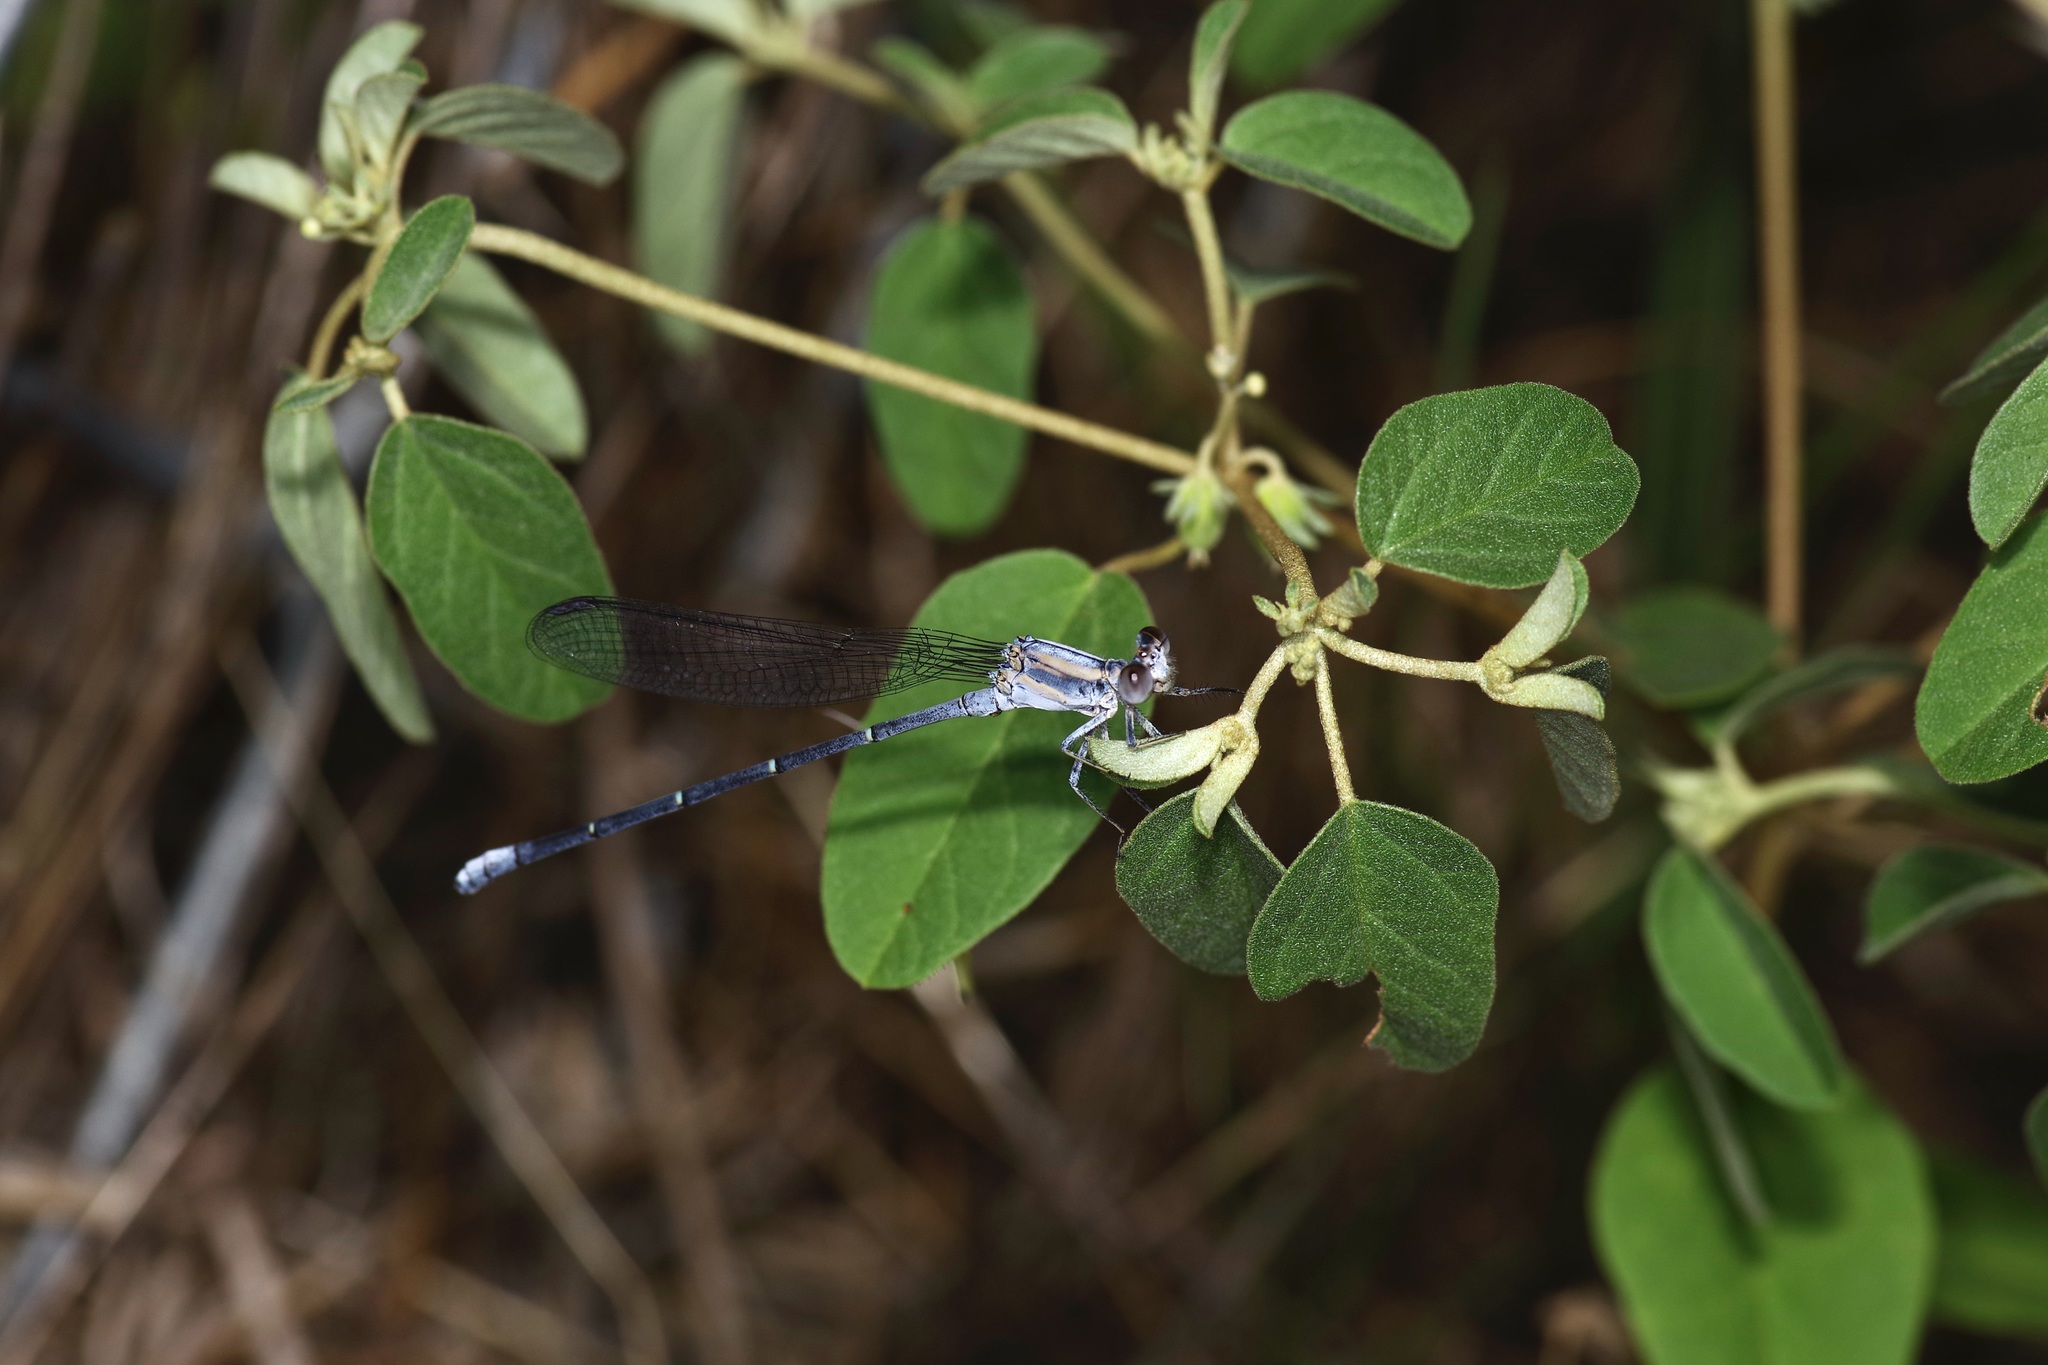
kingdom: Animalia
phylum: Arthropoda
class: Insecta
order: Odonata
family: Coenagrionidae
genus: Argia
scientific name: Argia moesta
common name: Powdered dancer
